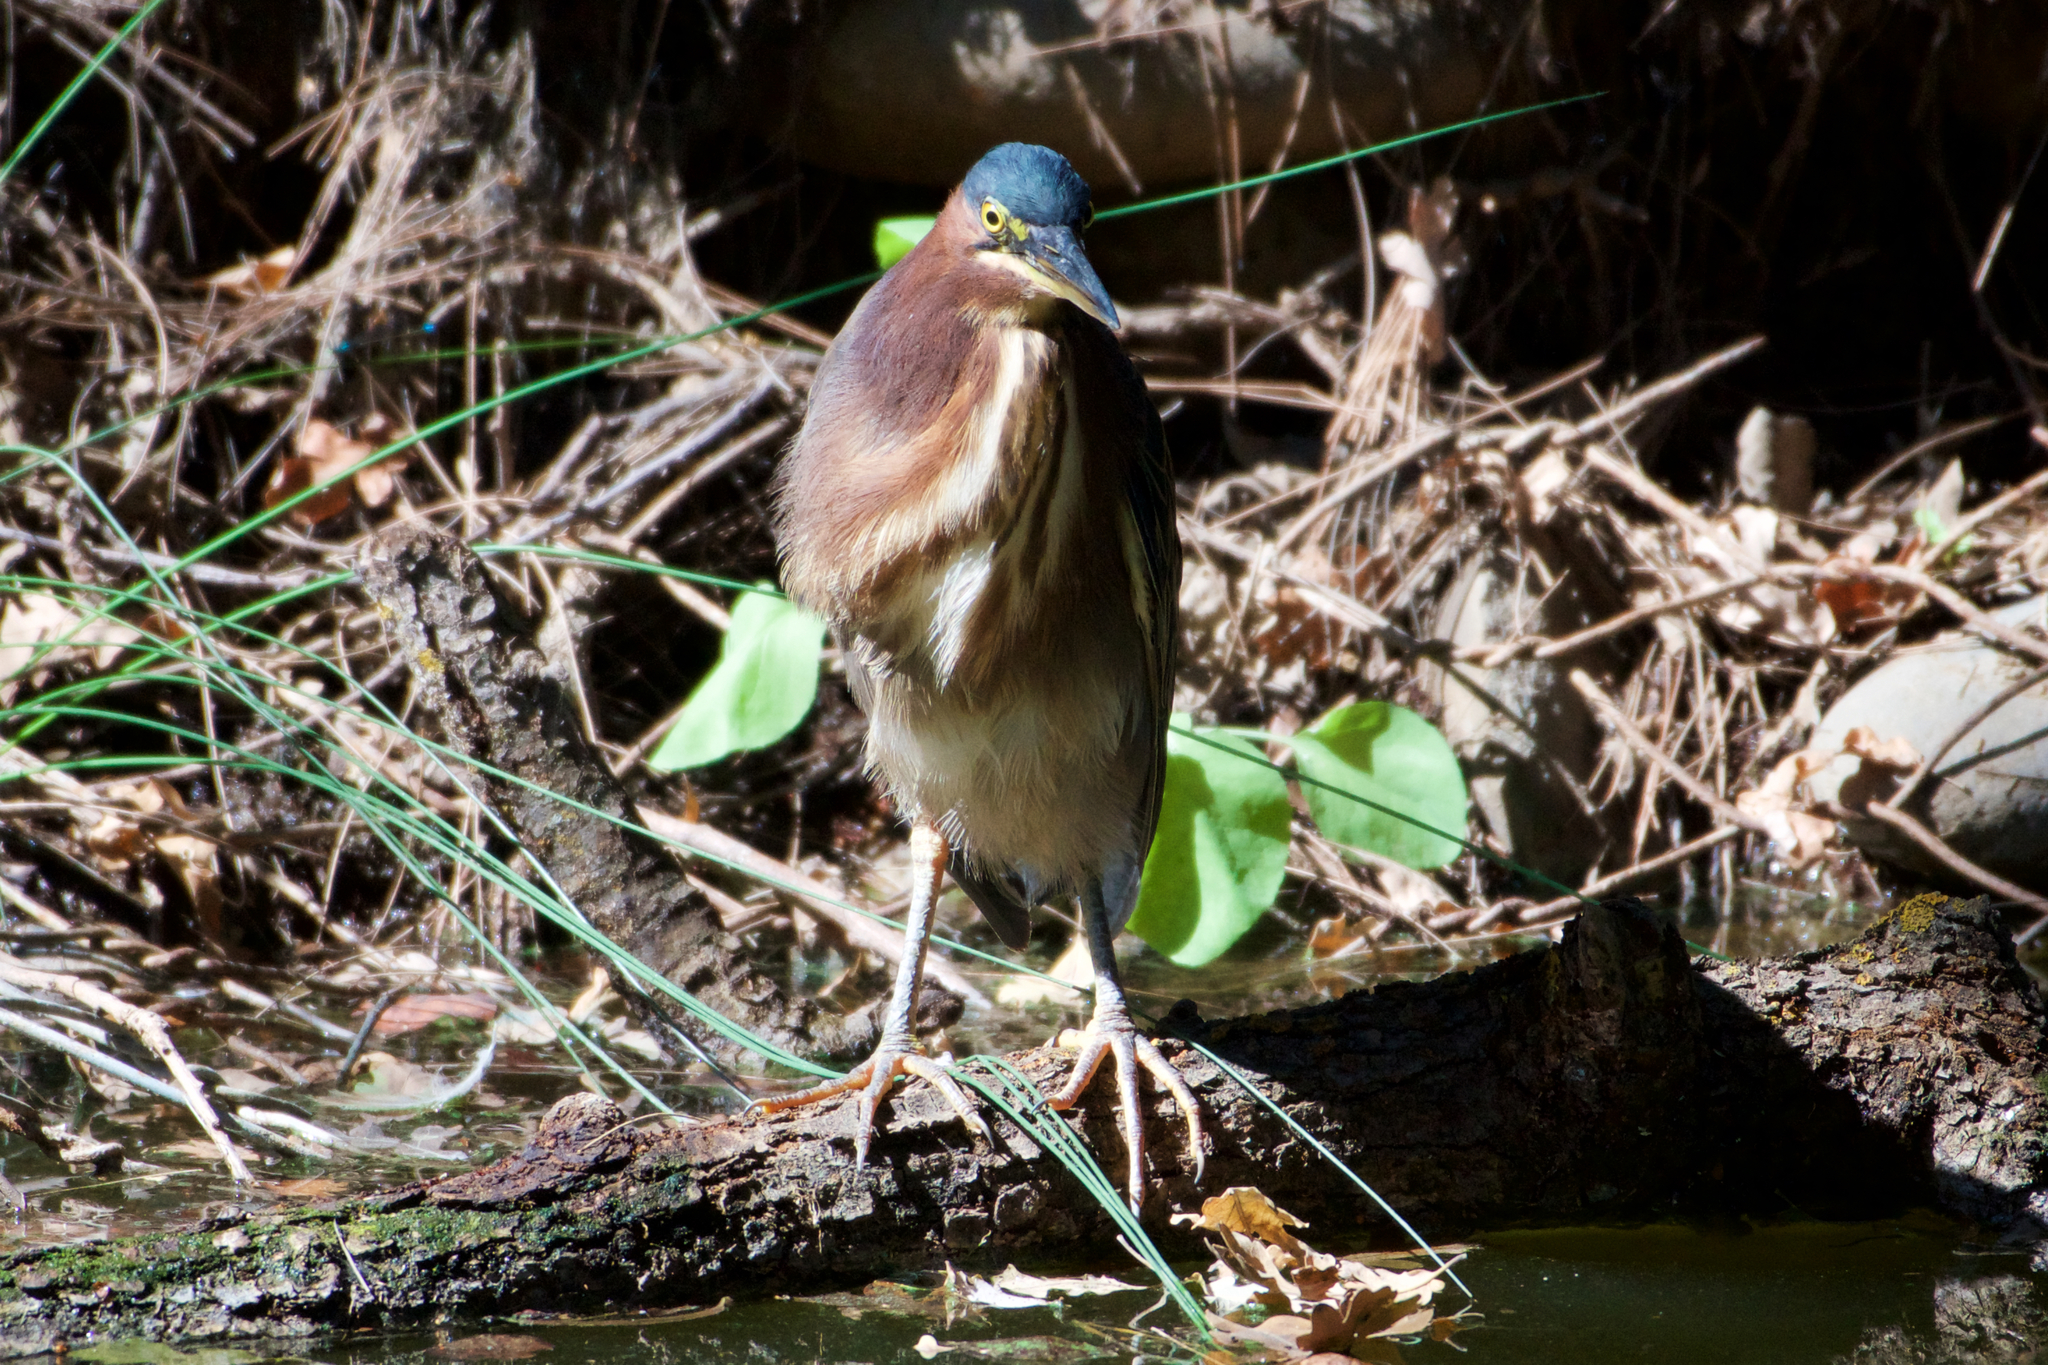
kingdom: Animalia
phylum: Chordata
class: Aves
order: Pelecaniformes
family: Ardeidae
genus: Butorides
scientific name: Butorides virescens
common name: Green heron
